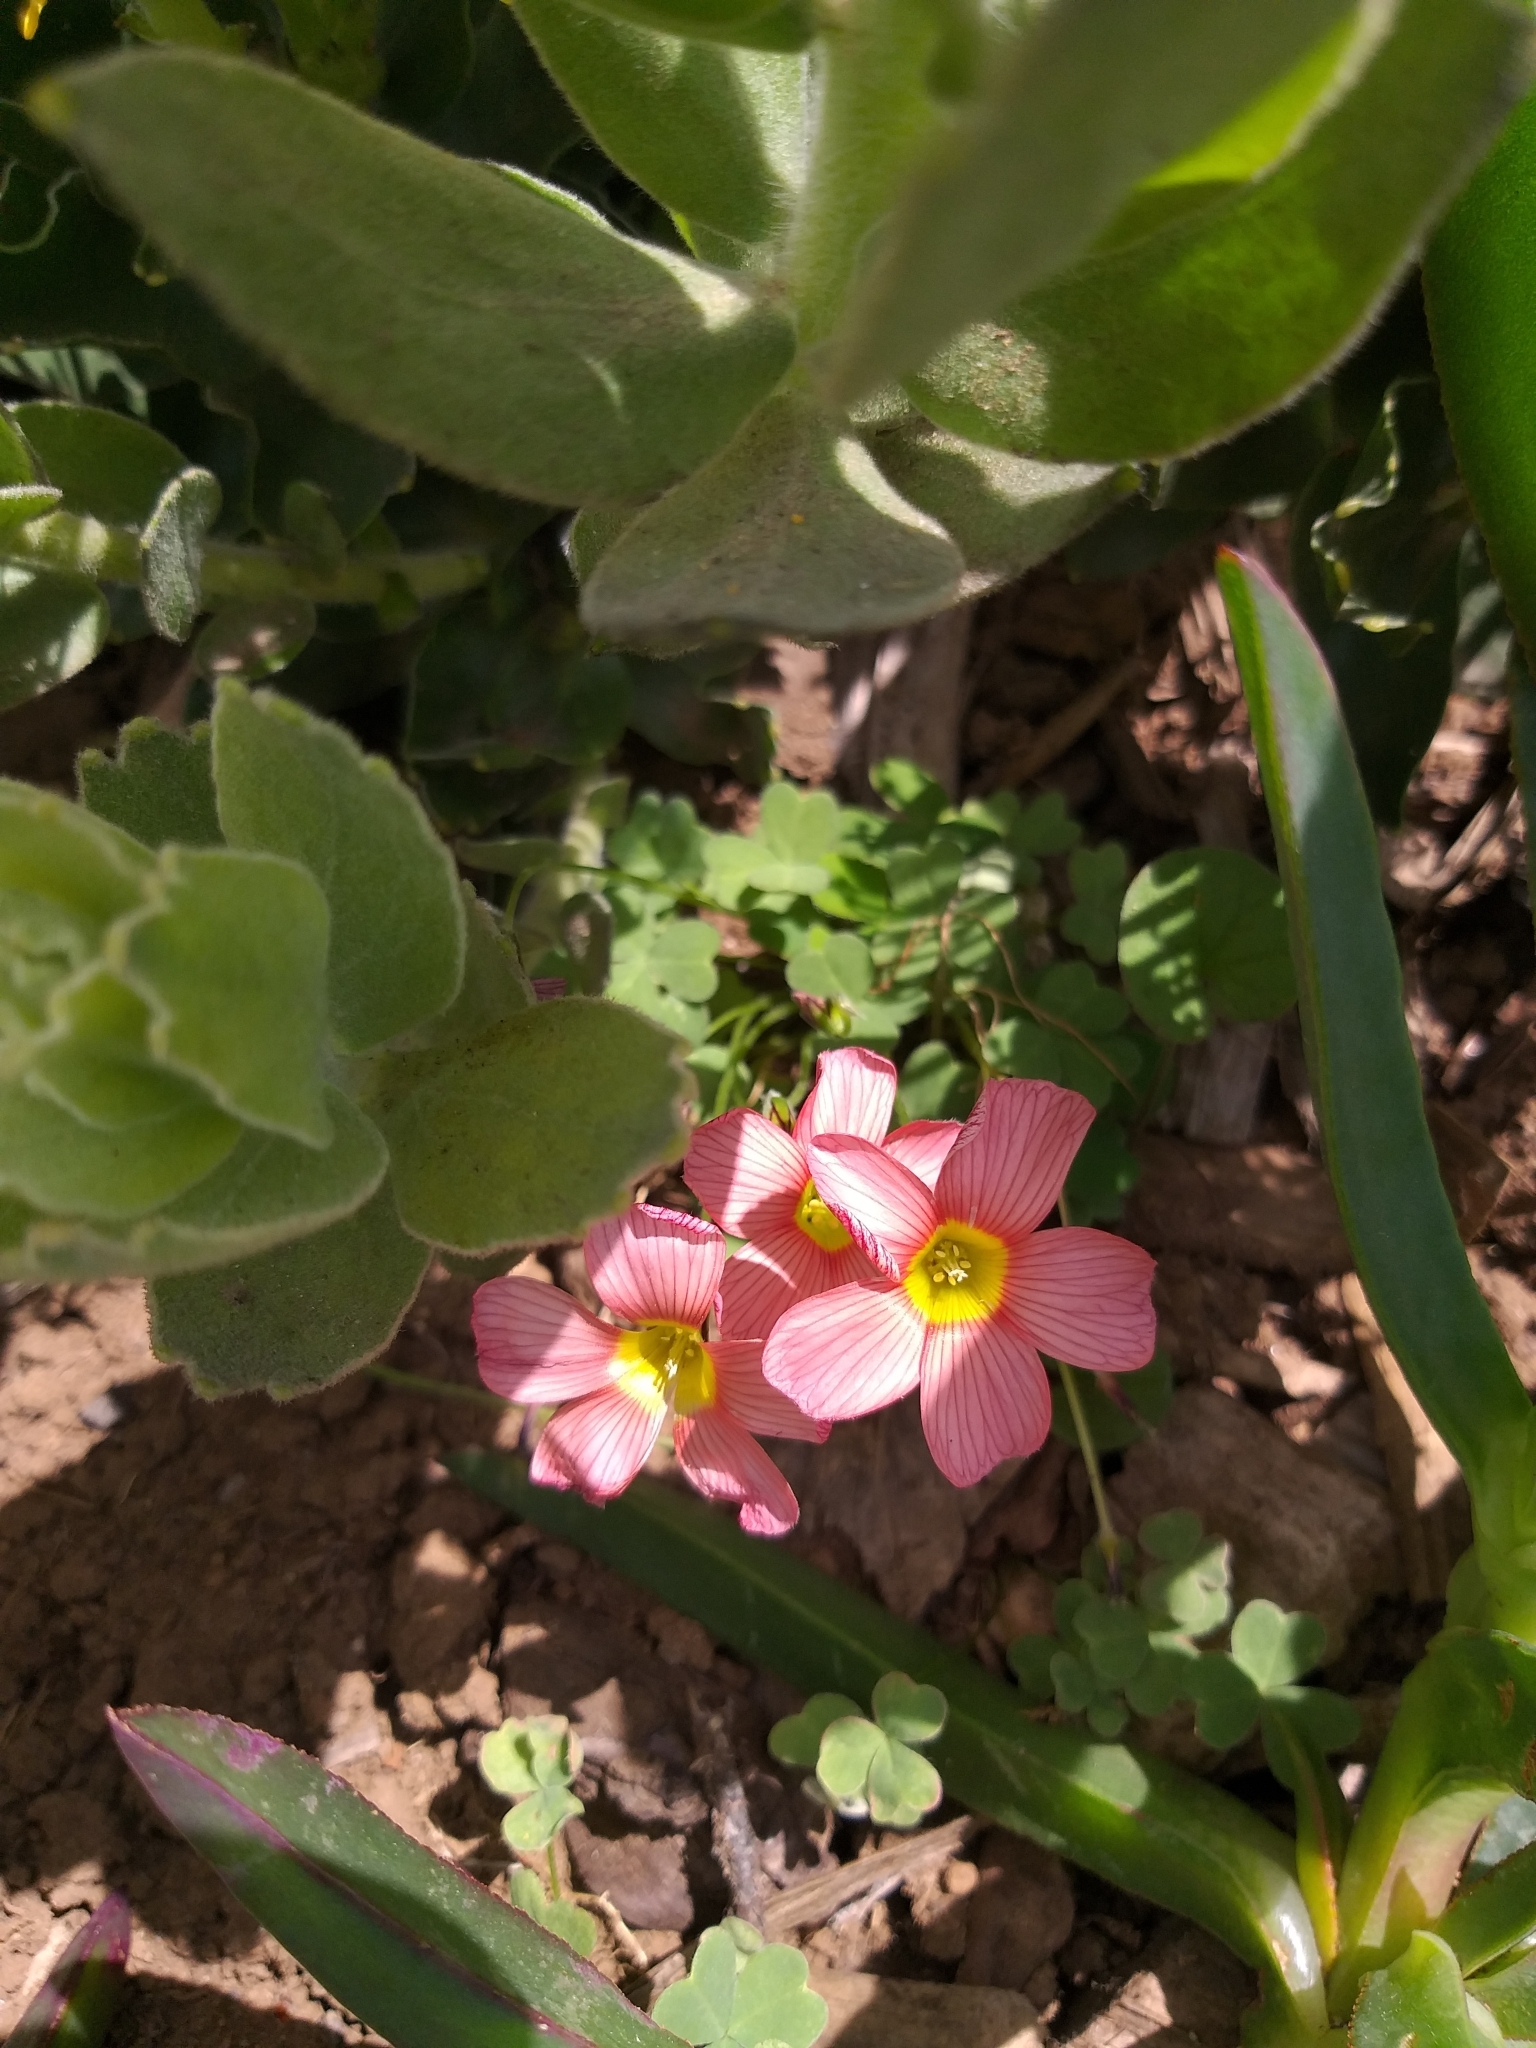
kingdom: Plantae
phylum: Tracheophyta
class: Magnoliopsida
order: Oxalidales
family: Oxalidaceae
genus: Oxalis
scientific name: Oxalis obtusa
